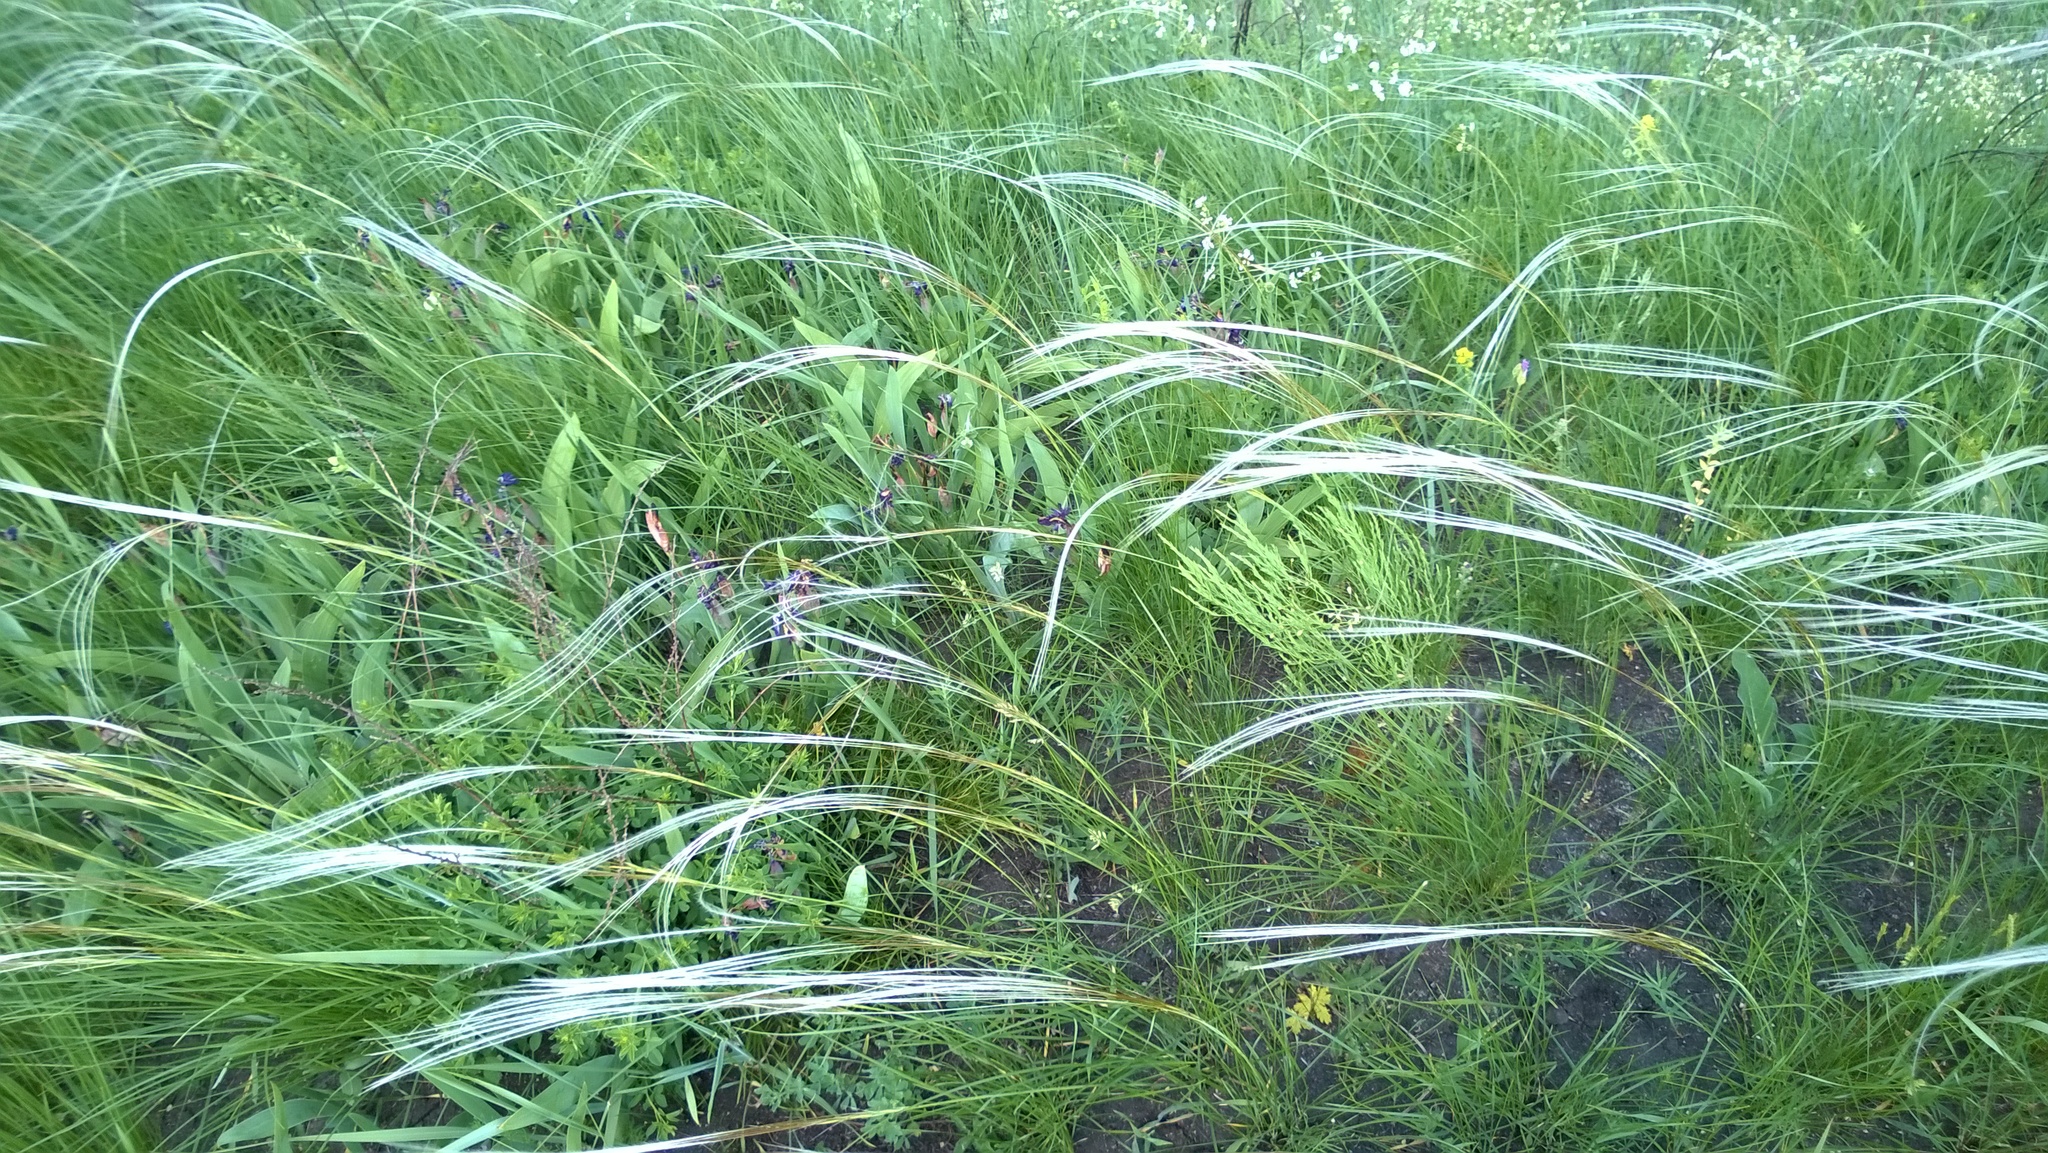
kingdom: Plantae
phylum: Tracheophyta
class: Liliopsida
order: Asparagales
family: Iridaceae
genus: Iris
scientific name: Iris aphylla
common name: Stool iris
